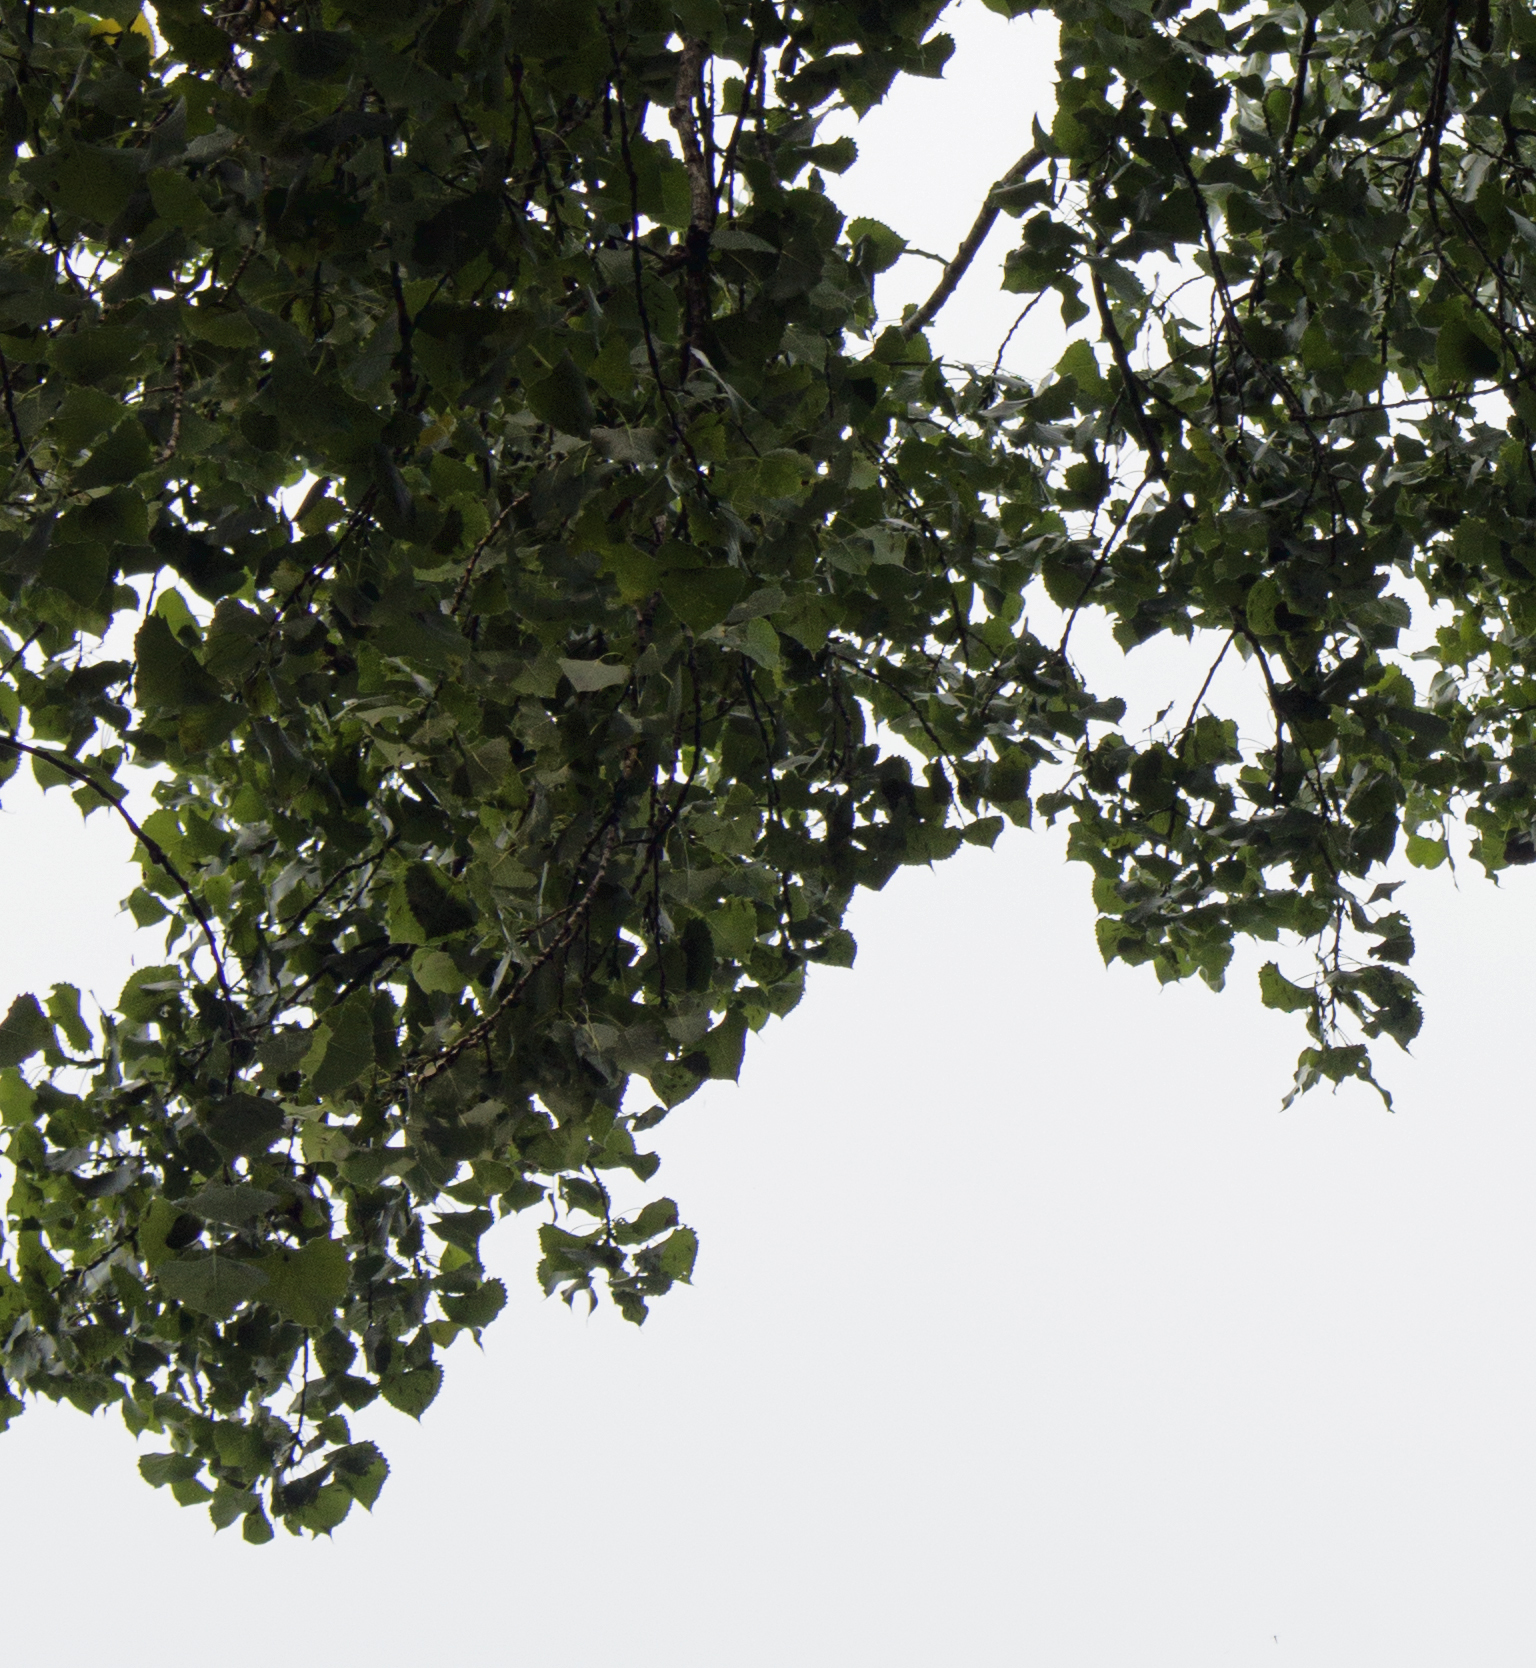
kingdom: Plantae
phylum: Tracheophyta
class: Magnoliopsida
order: Malpighiales
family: Salicaceae
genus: Populus
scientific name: Populus deltoides
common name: Eastern cottonwood
